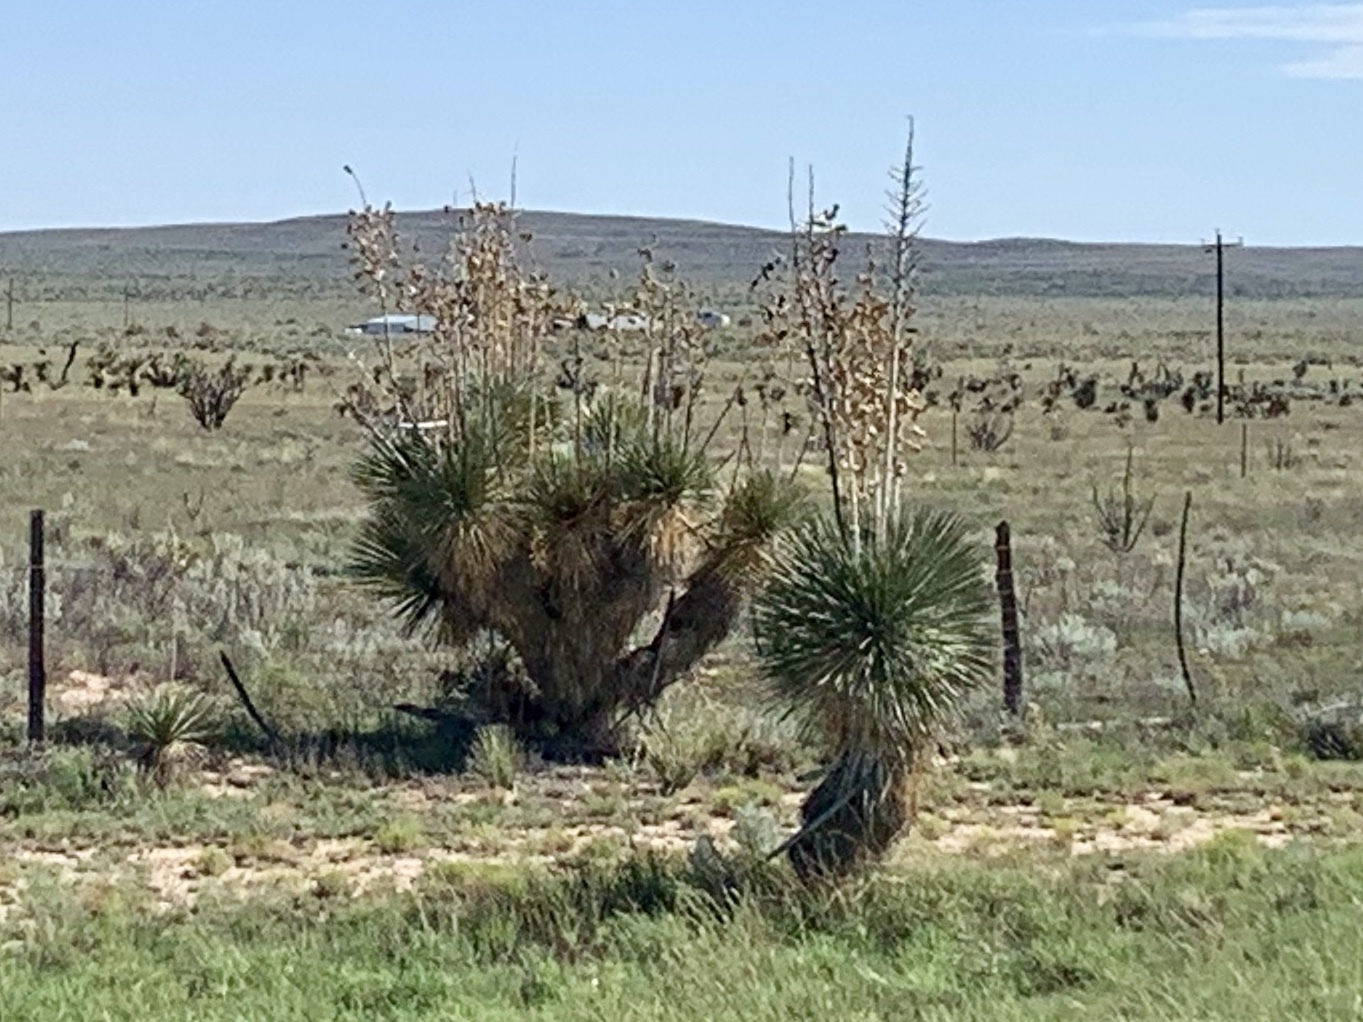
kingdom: Plantae
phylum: Tracheophyta
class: Liliopsida
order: Asparagales
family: Asparagaceae
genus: Yucca
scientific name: Yucca elata
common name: Palmella
